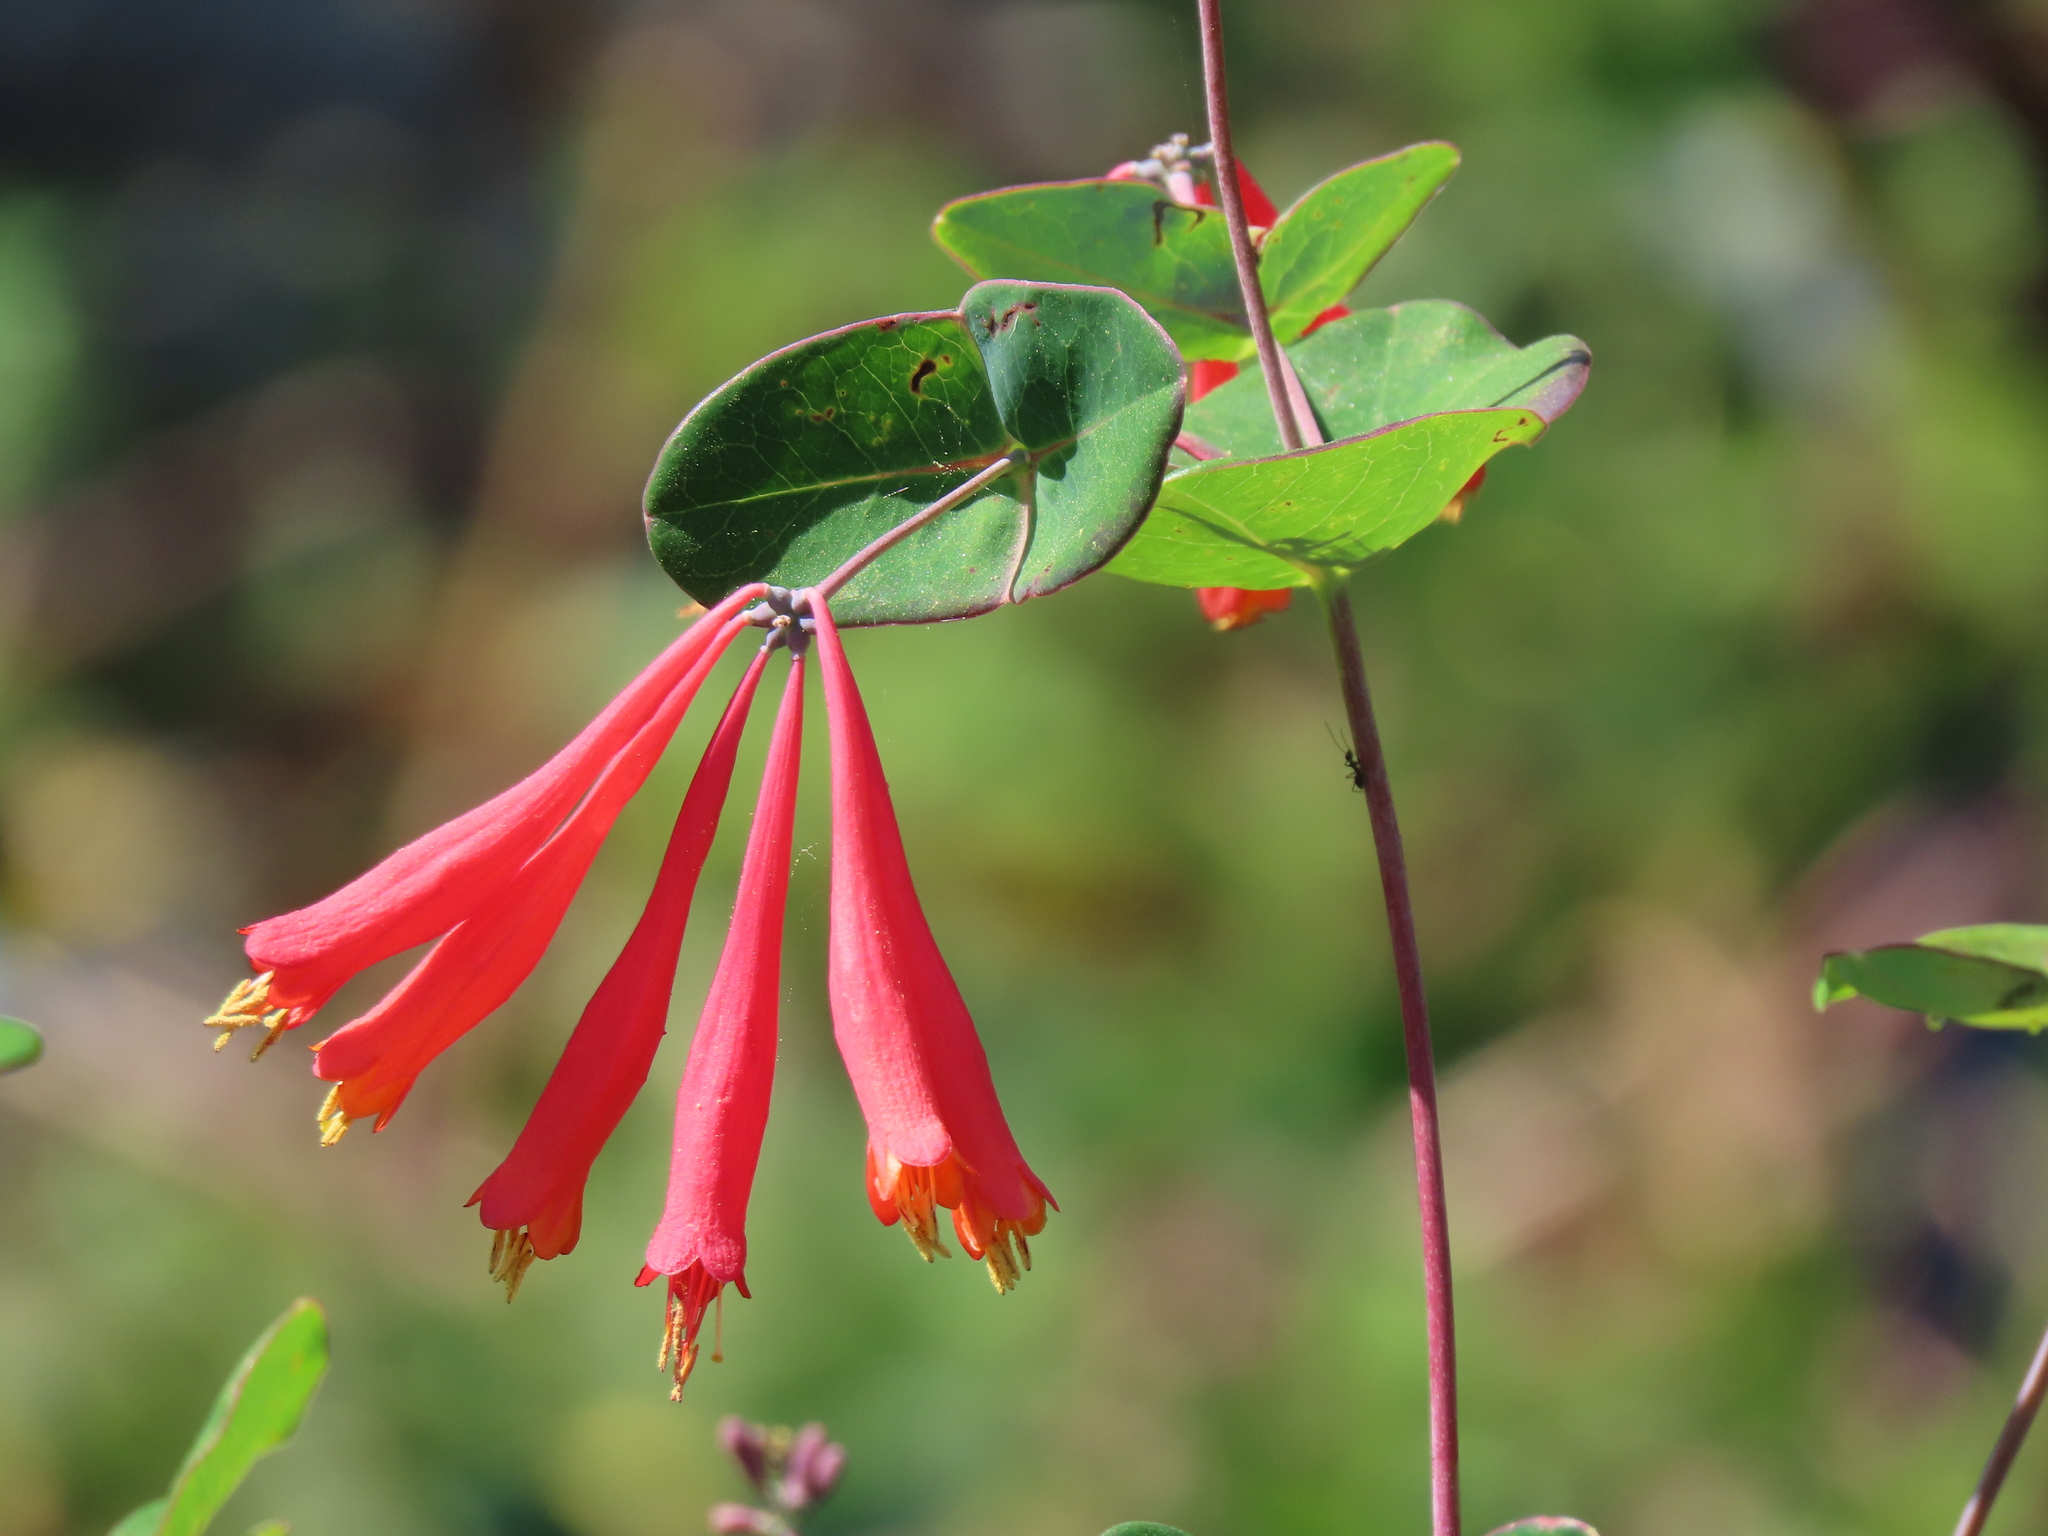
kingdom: Plantae
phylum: Tracheophyta
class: Magnoliopsida
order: Dipsacales
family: Caprifoliaceae
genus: Lonicera
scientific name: Lonicera sempervirens
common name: Coral honeysuckle
